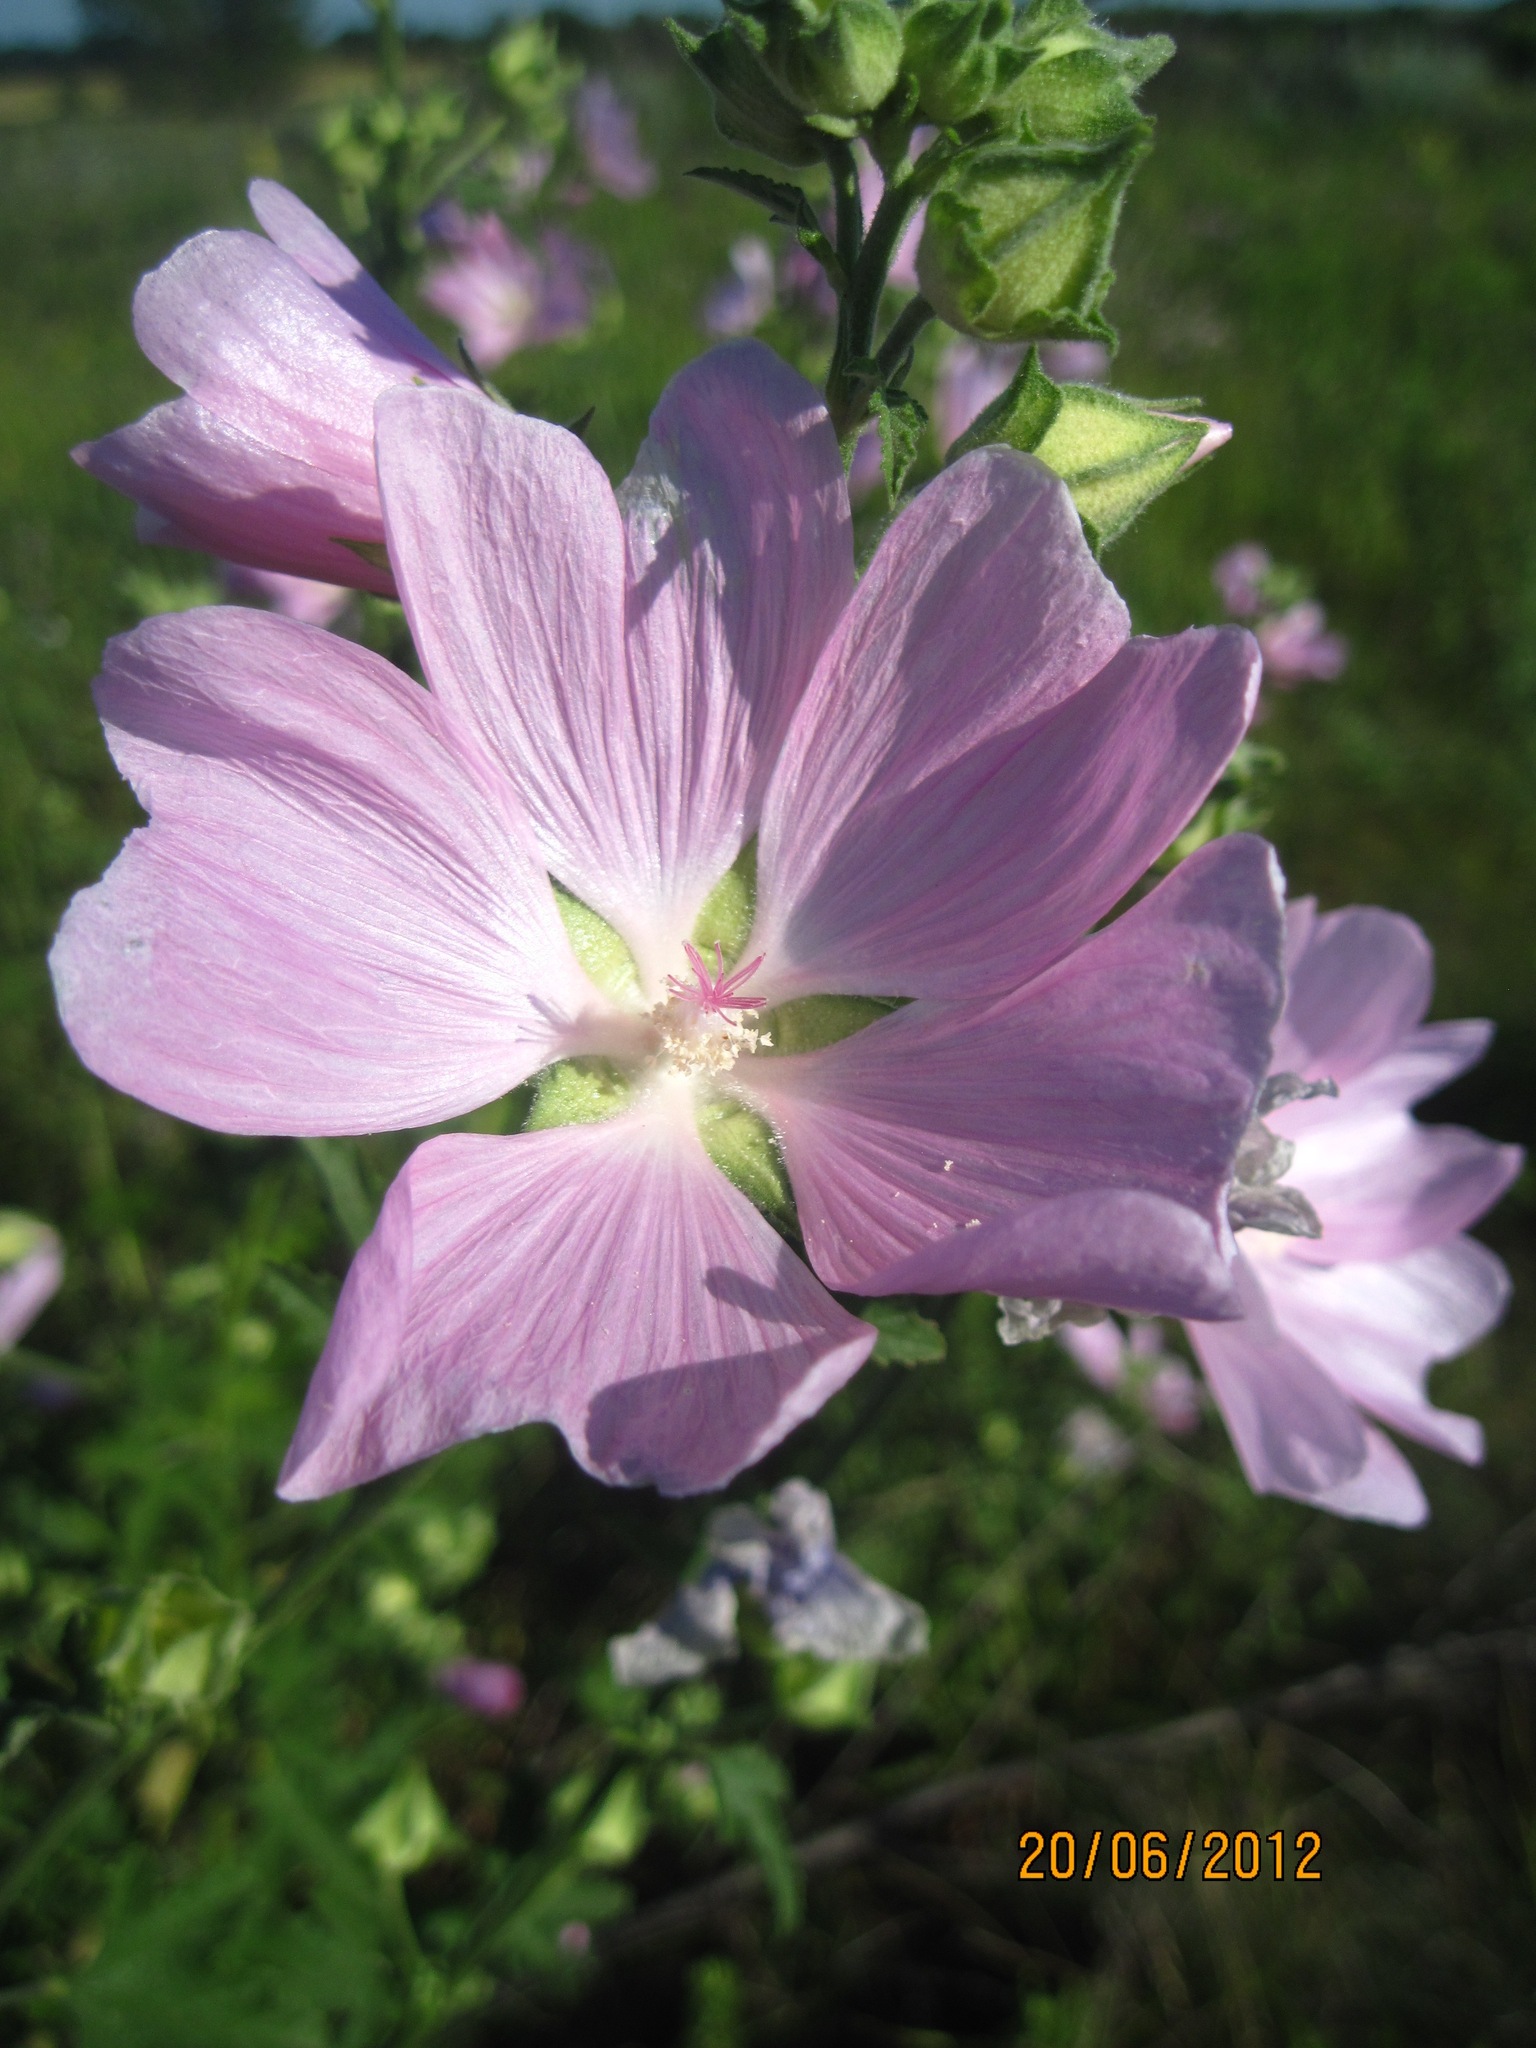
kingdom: Plantae
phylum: Tracheophyta
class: Magnoliopsida
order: Malvales
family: Malvaceae
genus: Malva
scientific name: Malva thuringiaca
